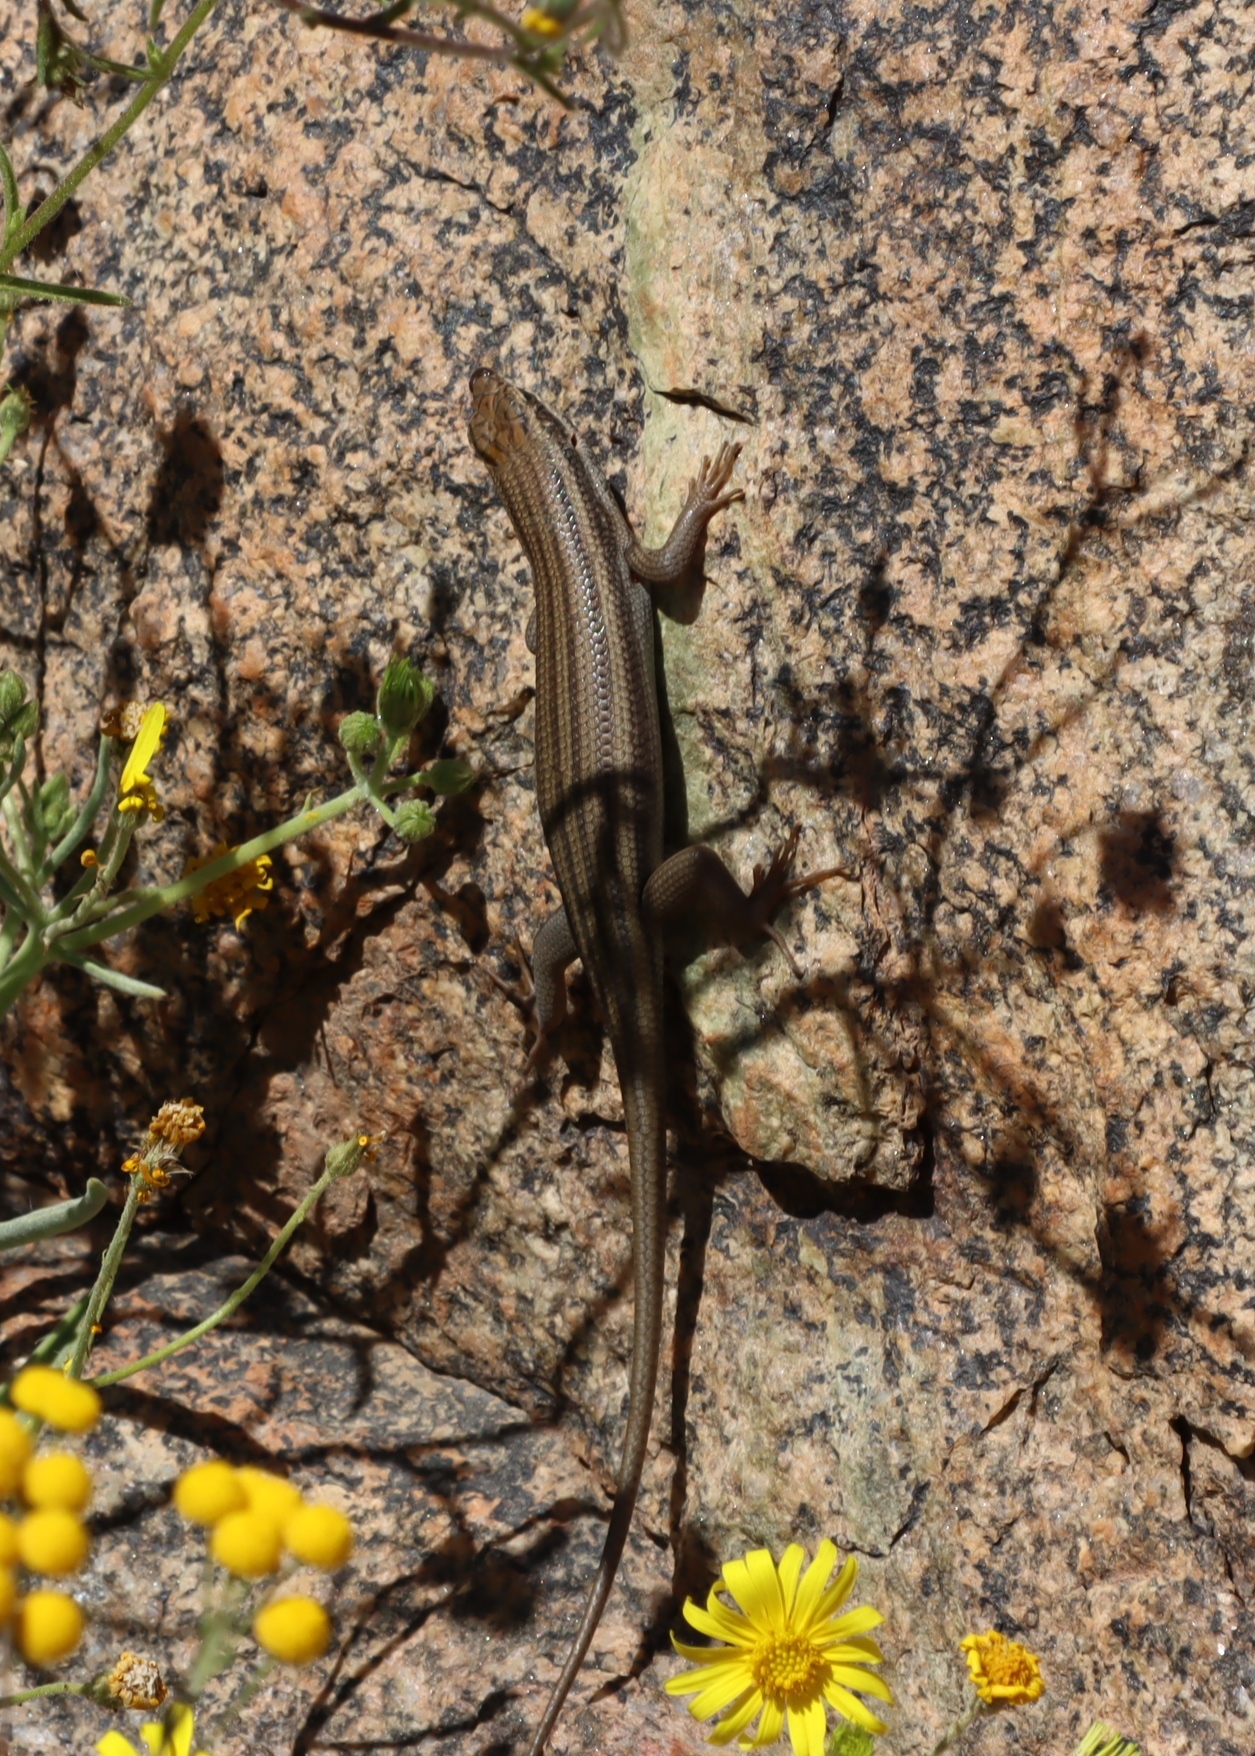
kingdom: Animalia
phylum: Chordata
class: Squamata
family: Scincidae
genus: Trachylepis
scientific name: Trachylepis sulcata
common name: Western rock skink
